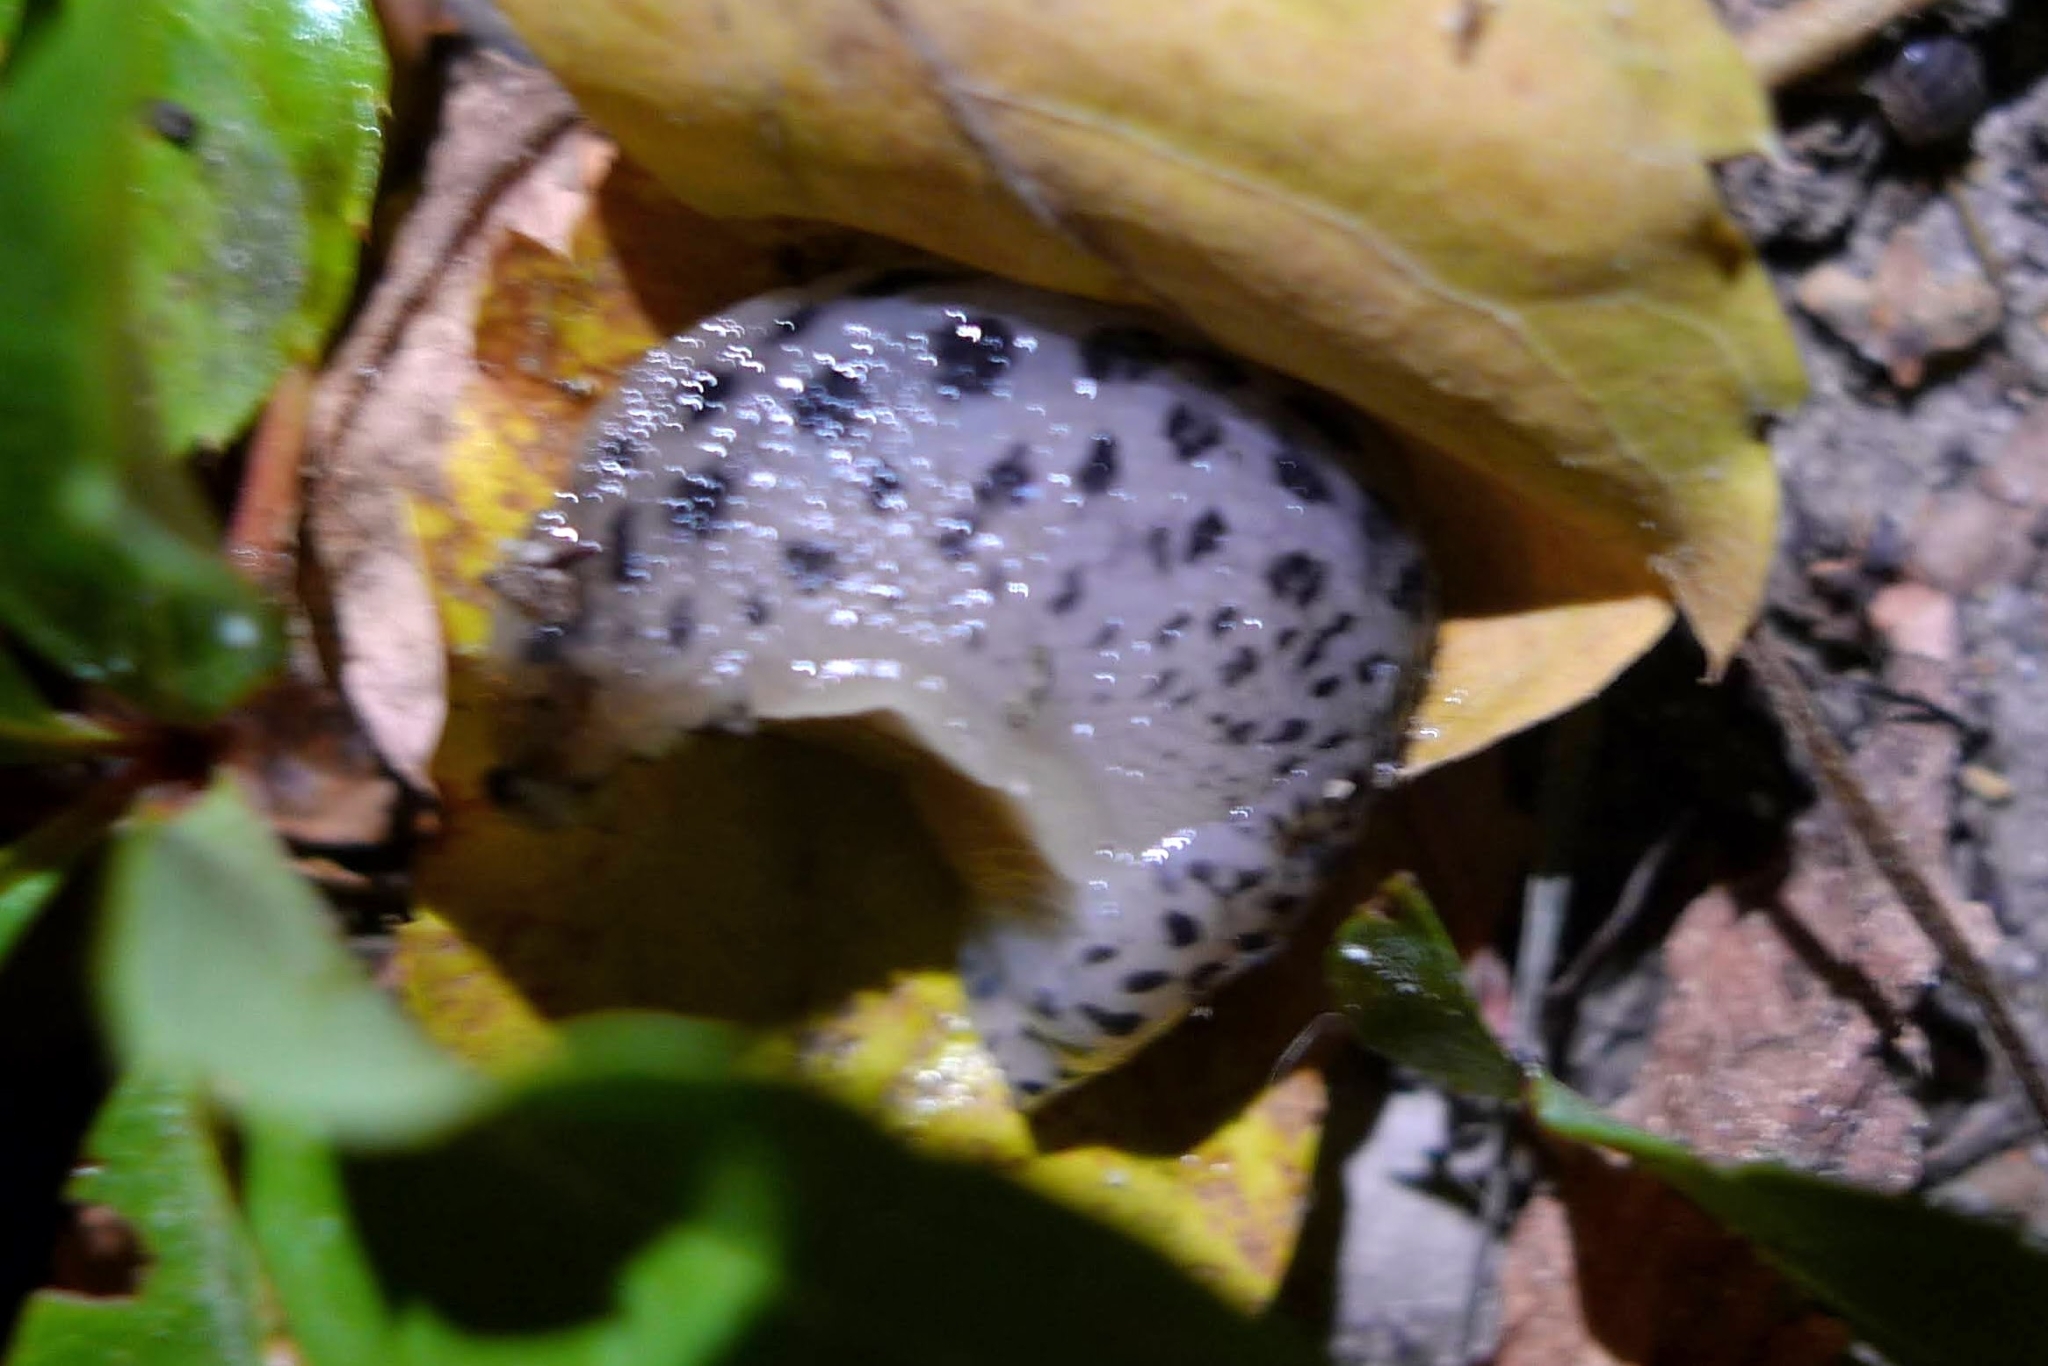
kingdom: Animalia
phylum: Mollusca
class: Gastropoda
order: Stylommatophora
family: Limacidae
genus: Limax
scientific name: Limax maximus
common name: Great grey slug
